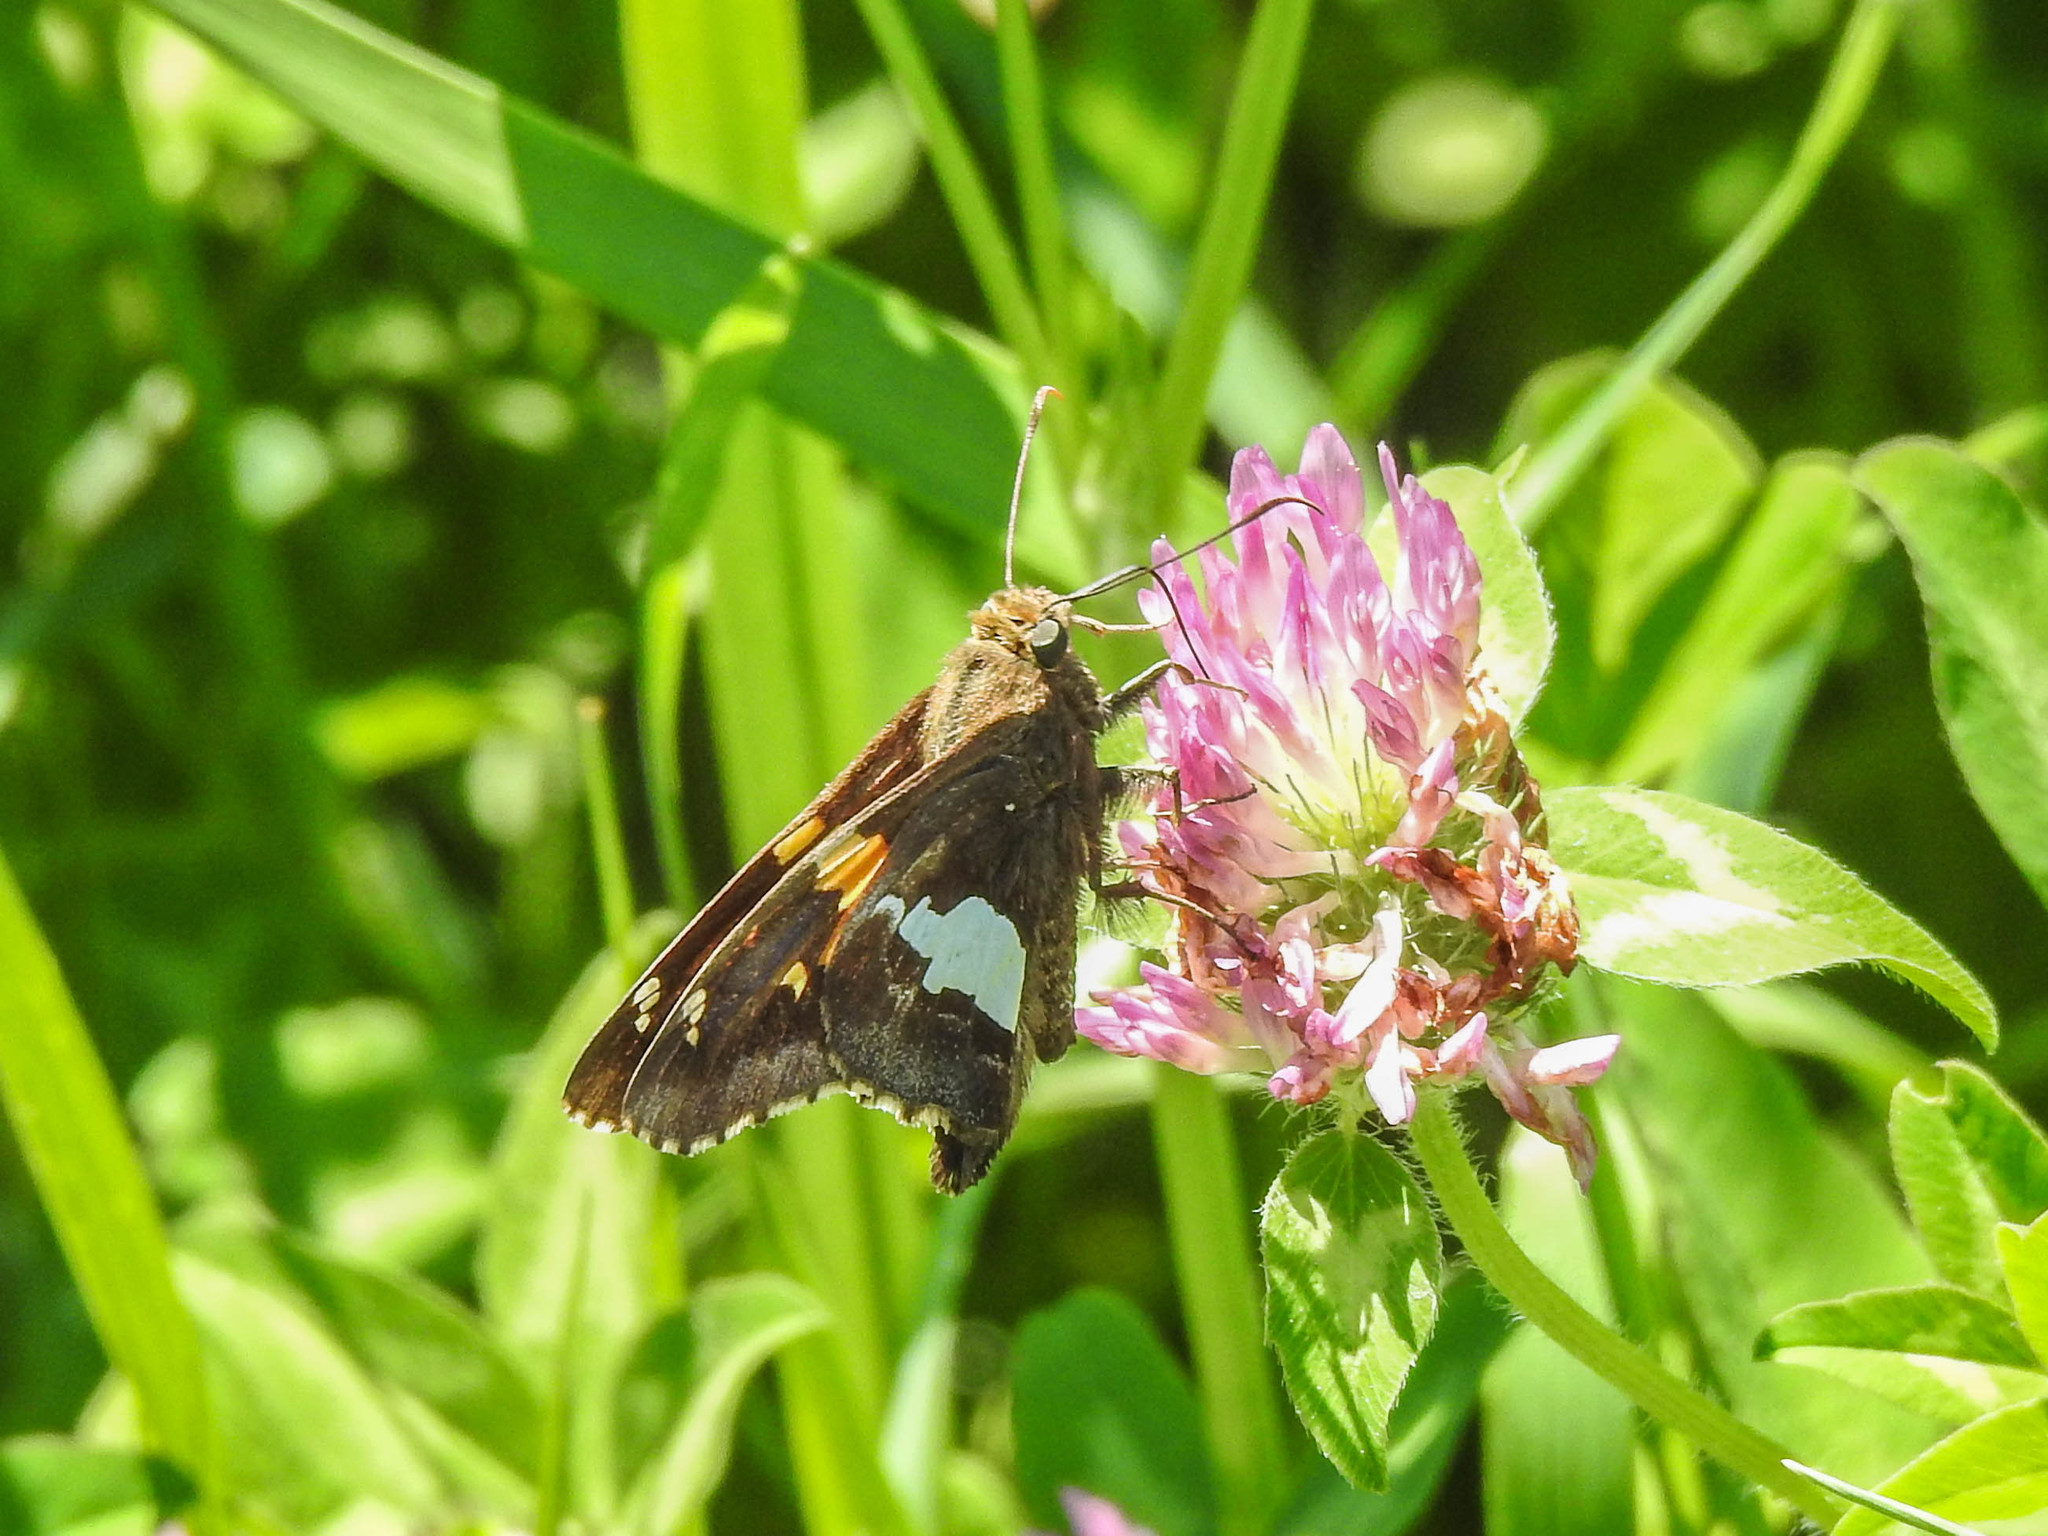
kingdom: Animalia
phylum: Arthropoda
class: Insecta
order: Lepidoptera
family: Hesperiidae
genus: Epargyreus
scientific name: Epargyreus clarus
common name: Silver-spotted skipper
